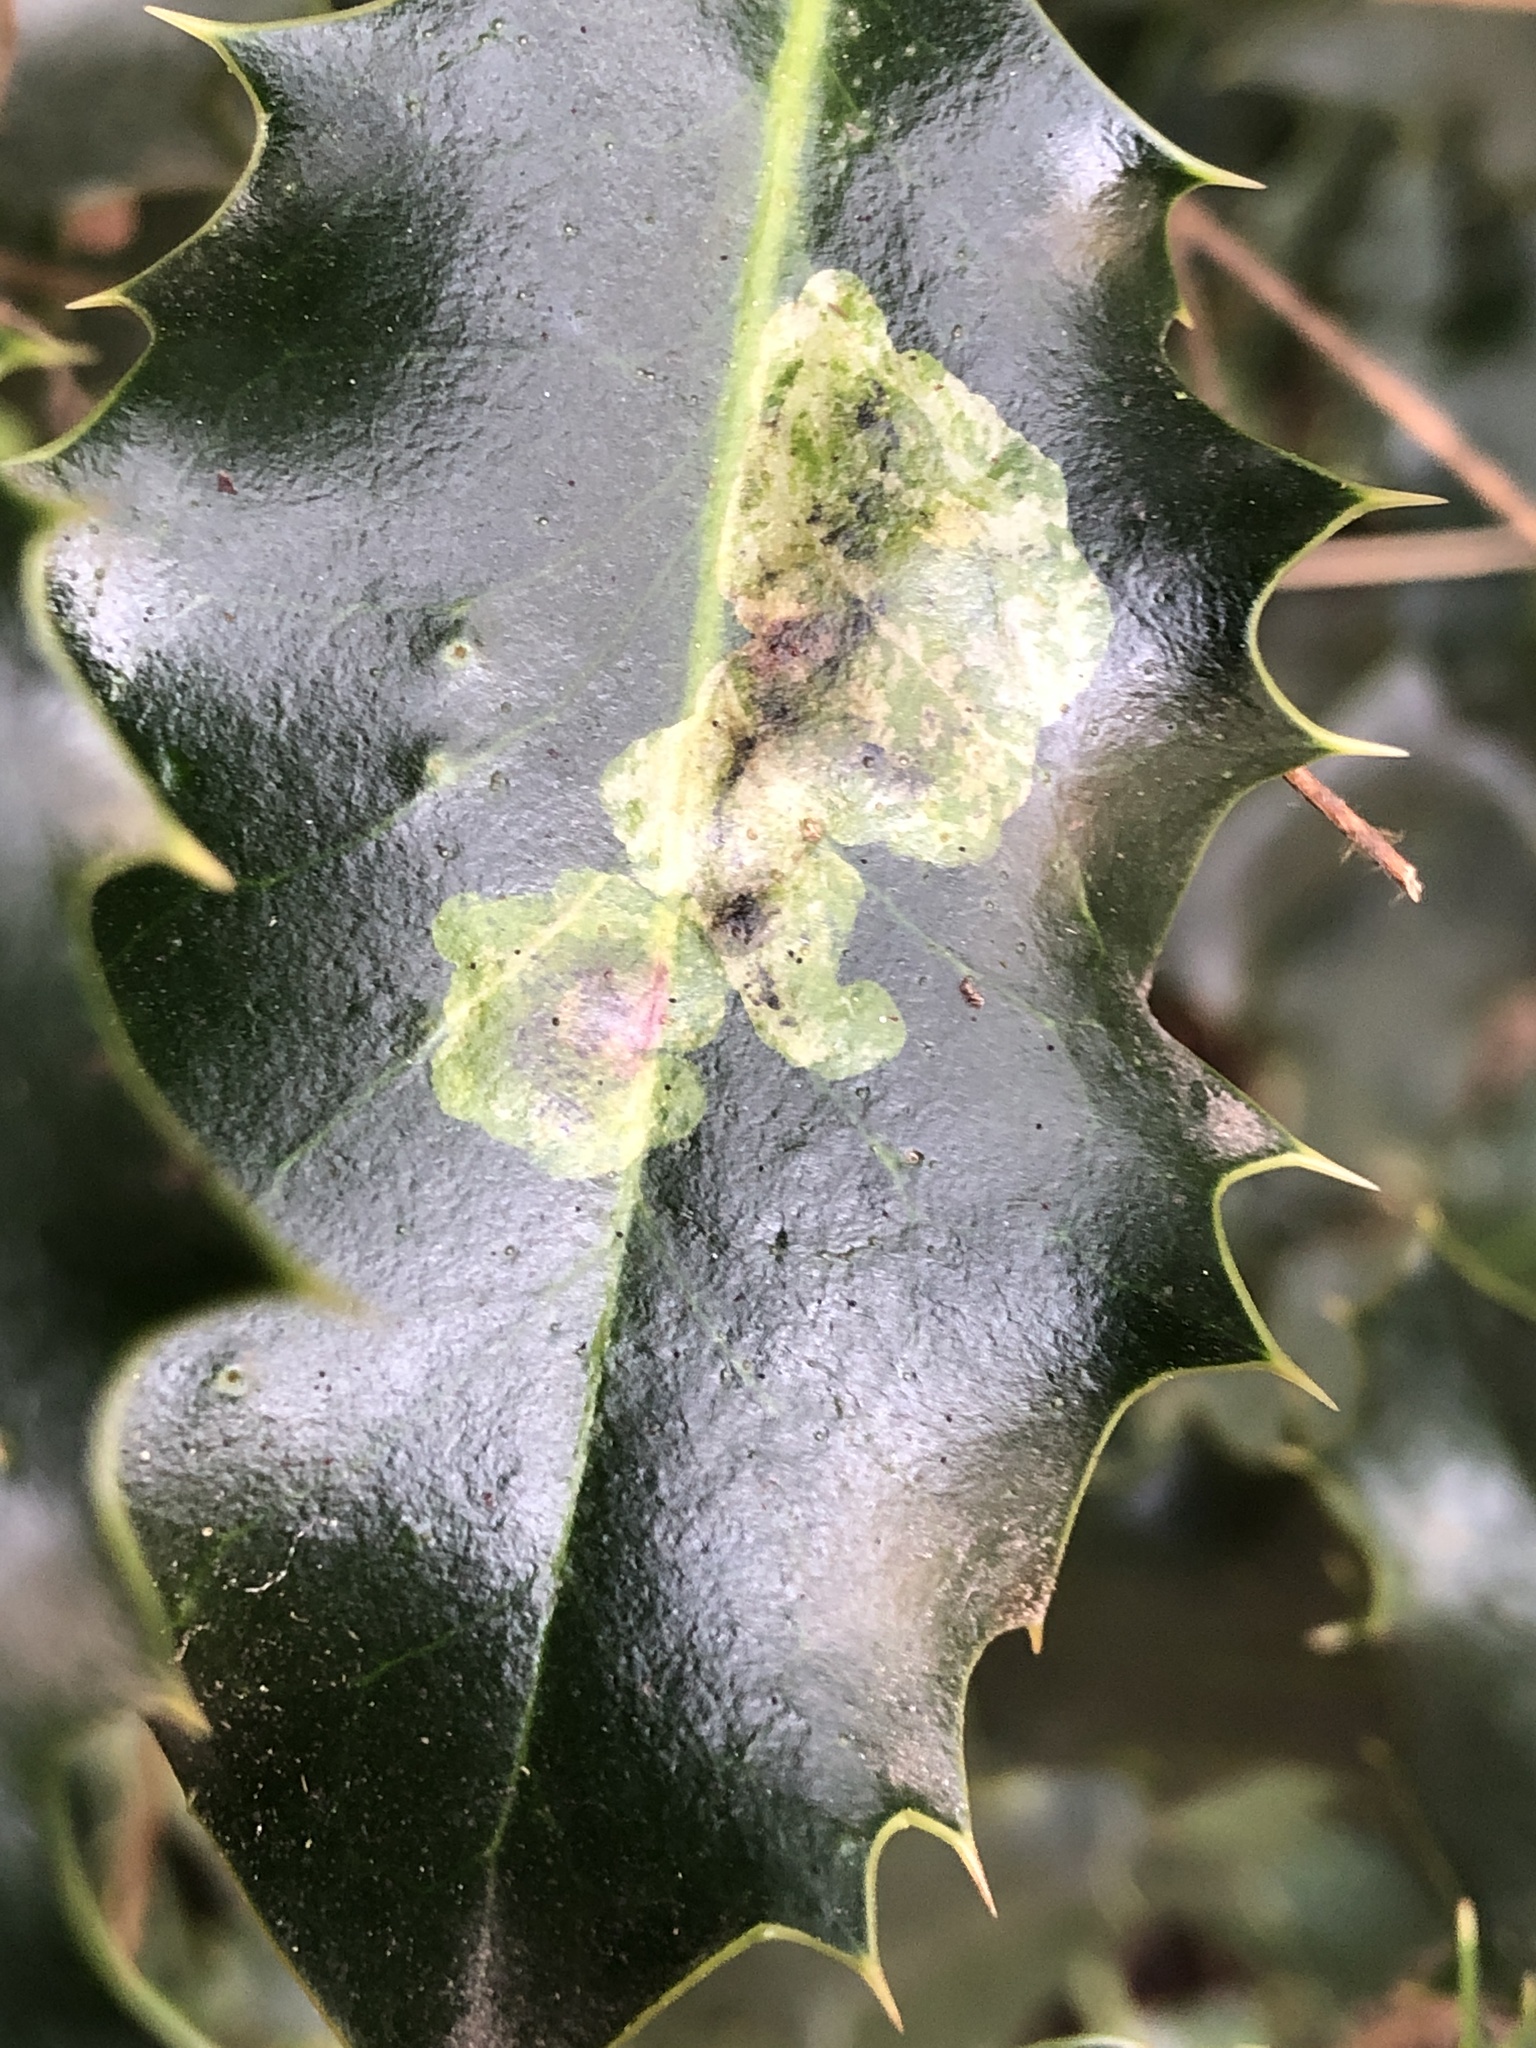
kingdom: Animalia
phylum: Arthropoda
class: Insecta
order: Diptera
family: Agromyzidae
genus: Phytomyza
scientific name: Phytomyza ilicis
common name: Holly leafminer
